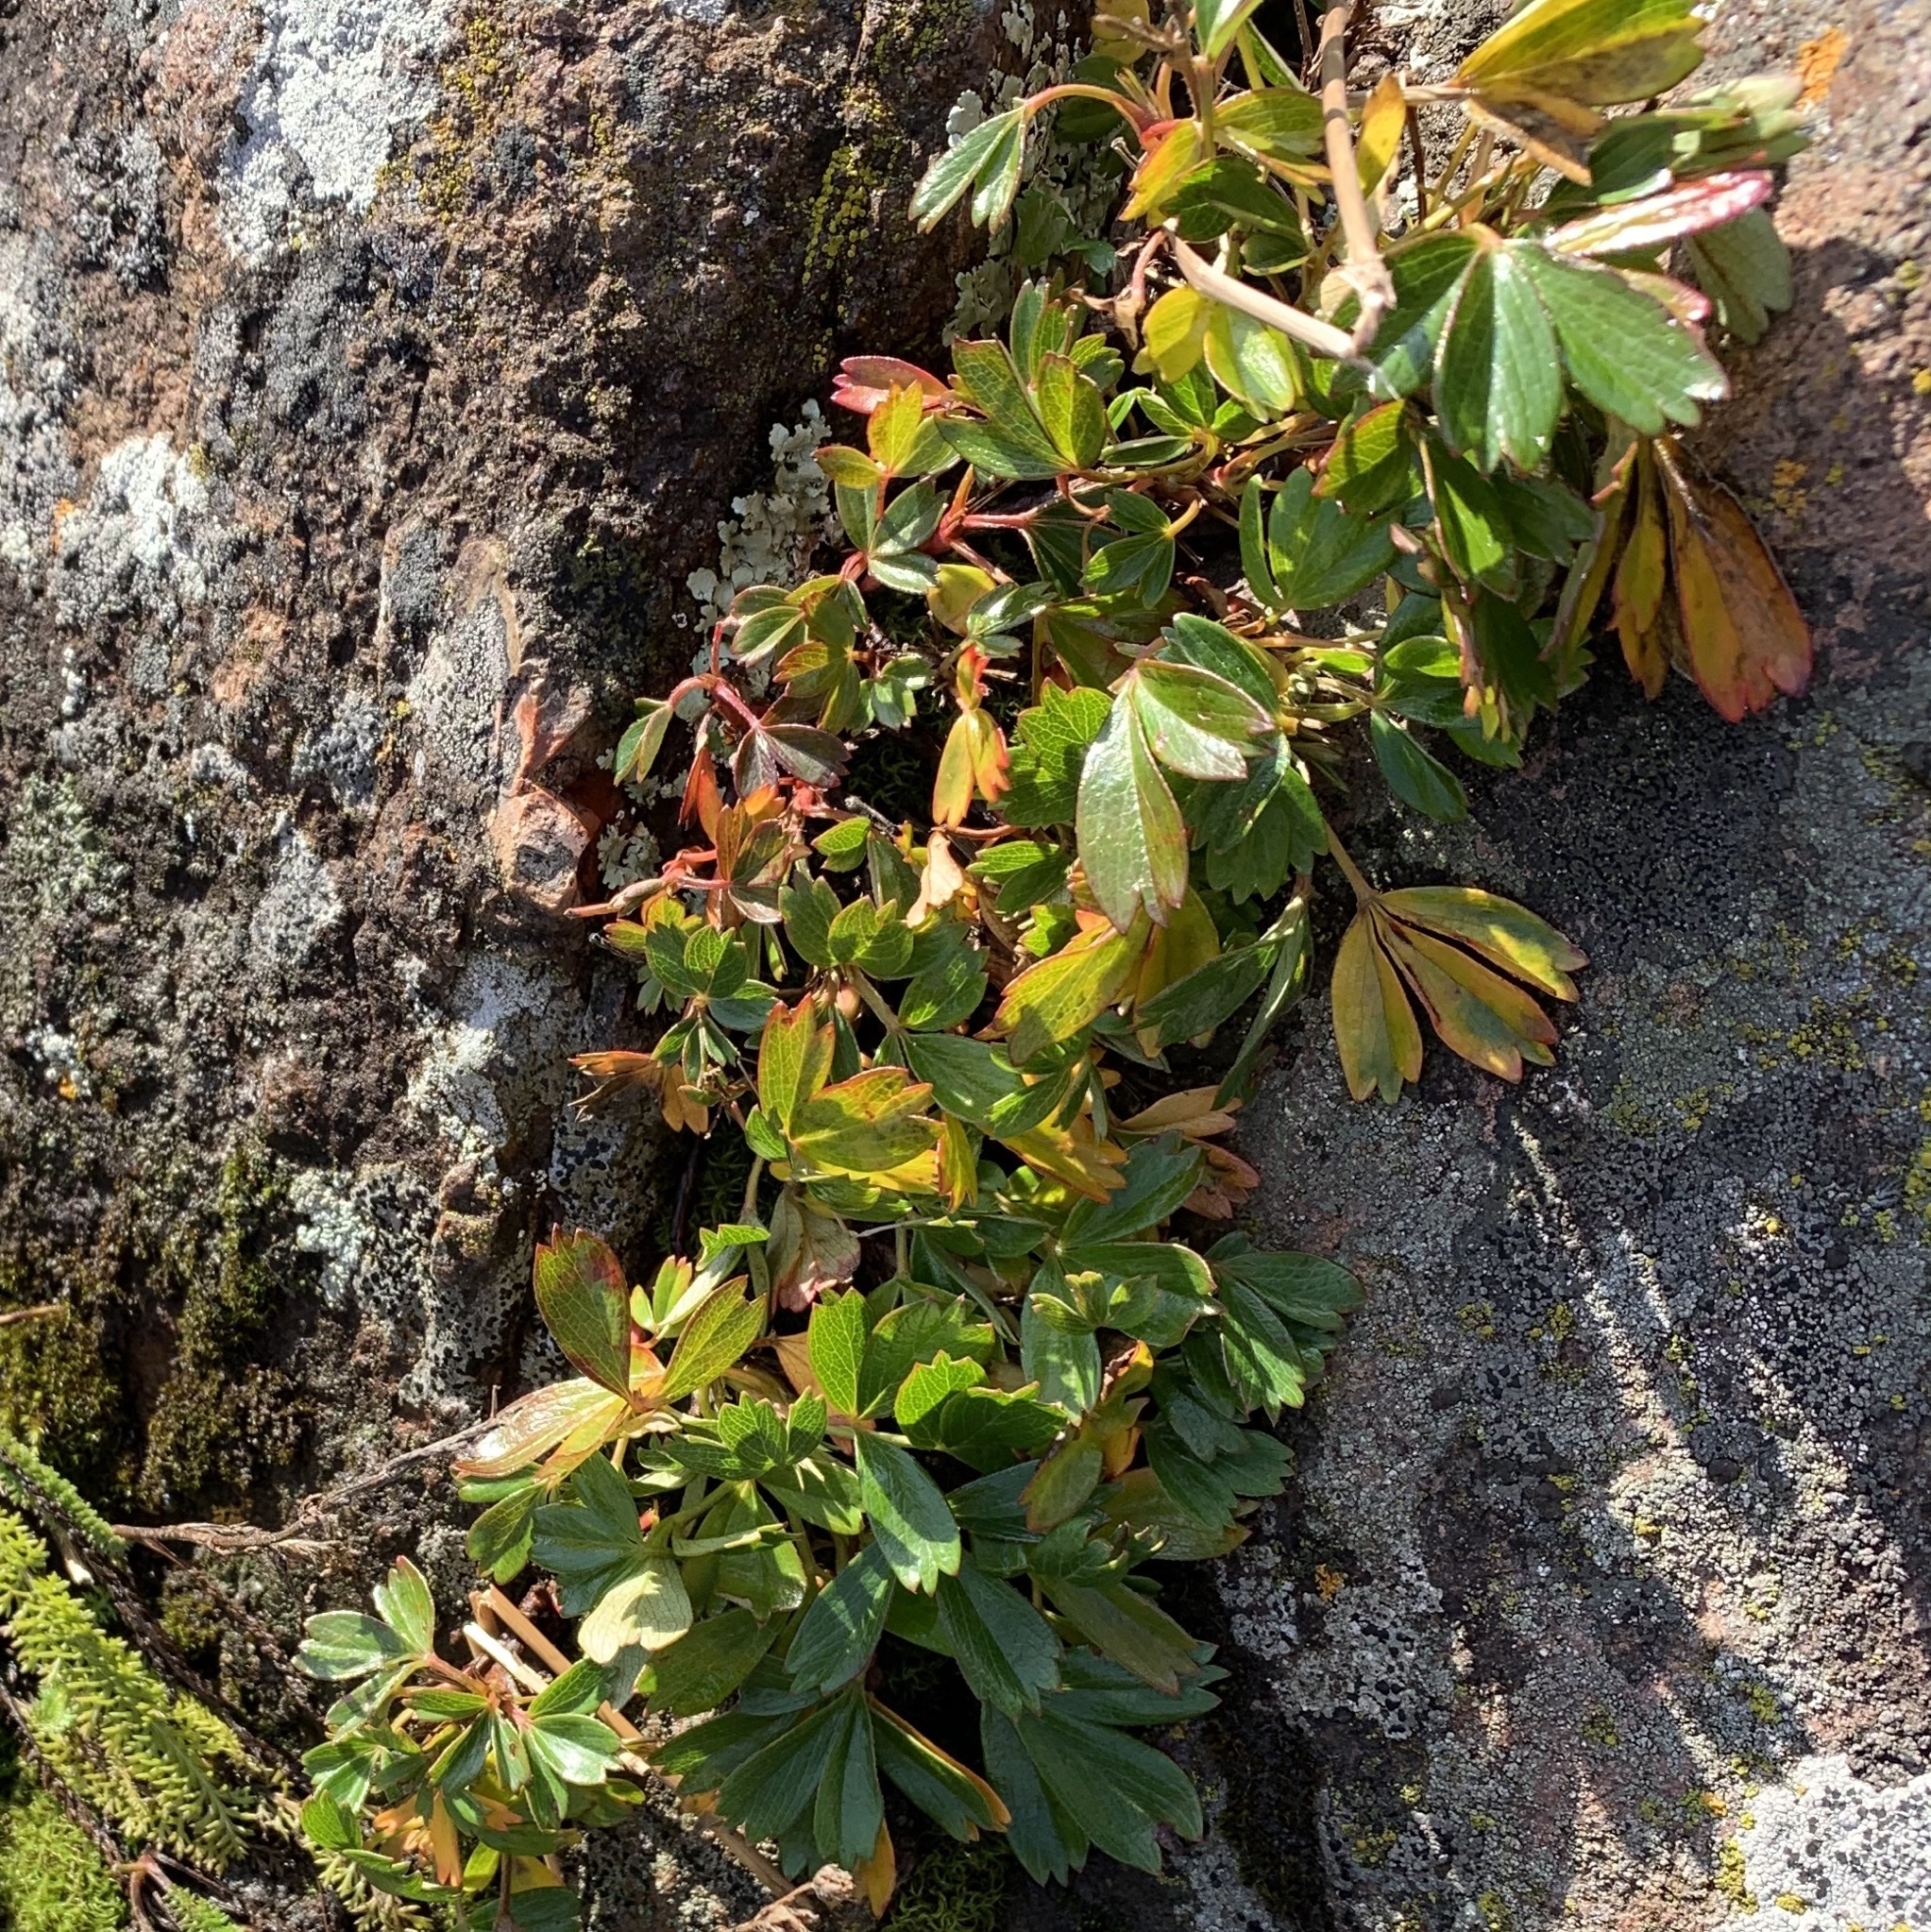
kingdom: Plantae
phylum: Tracheophyta
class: Magnoliopsida
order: Rosales
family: Rosaceae
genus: Sibbaldia
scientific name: Sibbaldia tridentata
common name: Three-toothed cinquefoil
